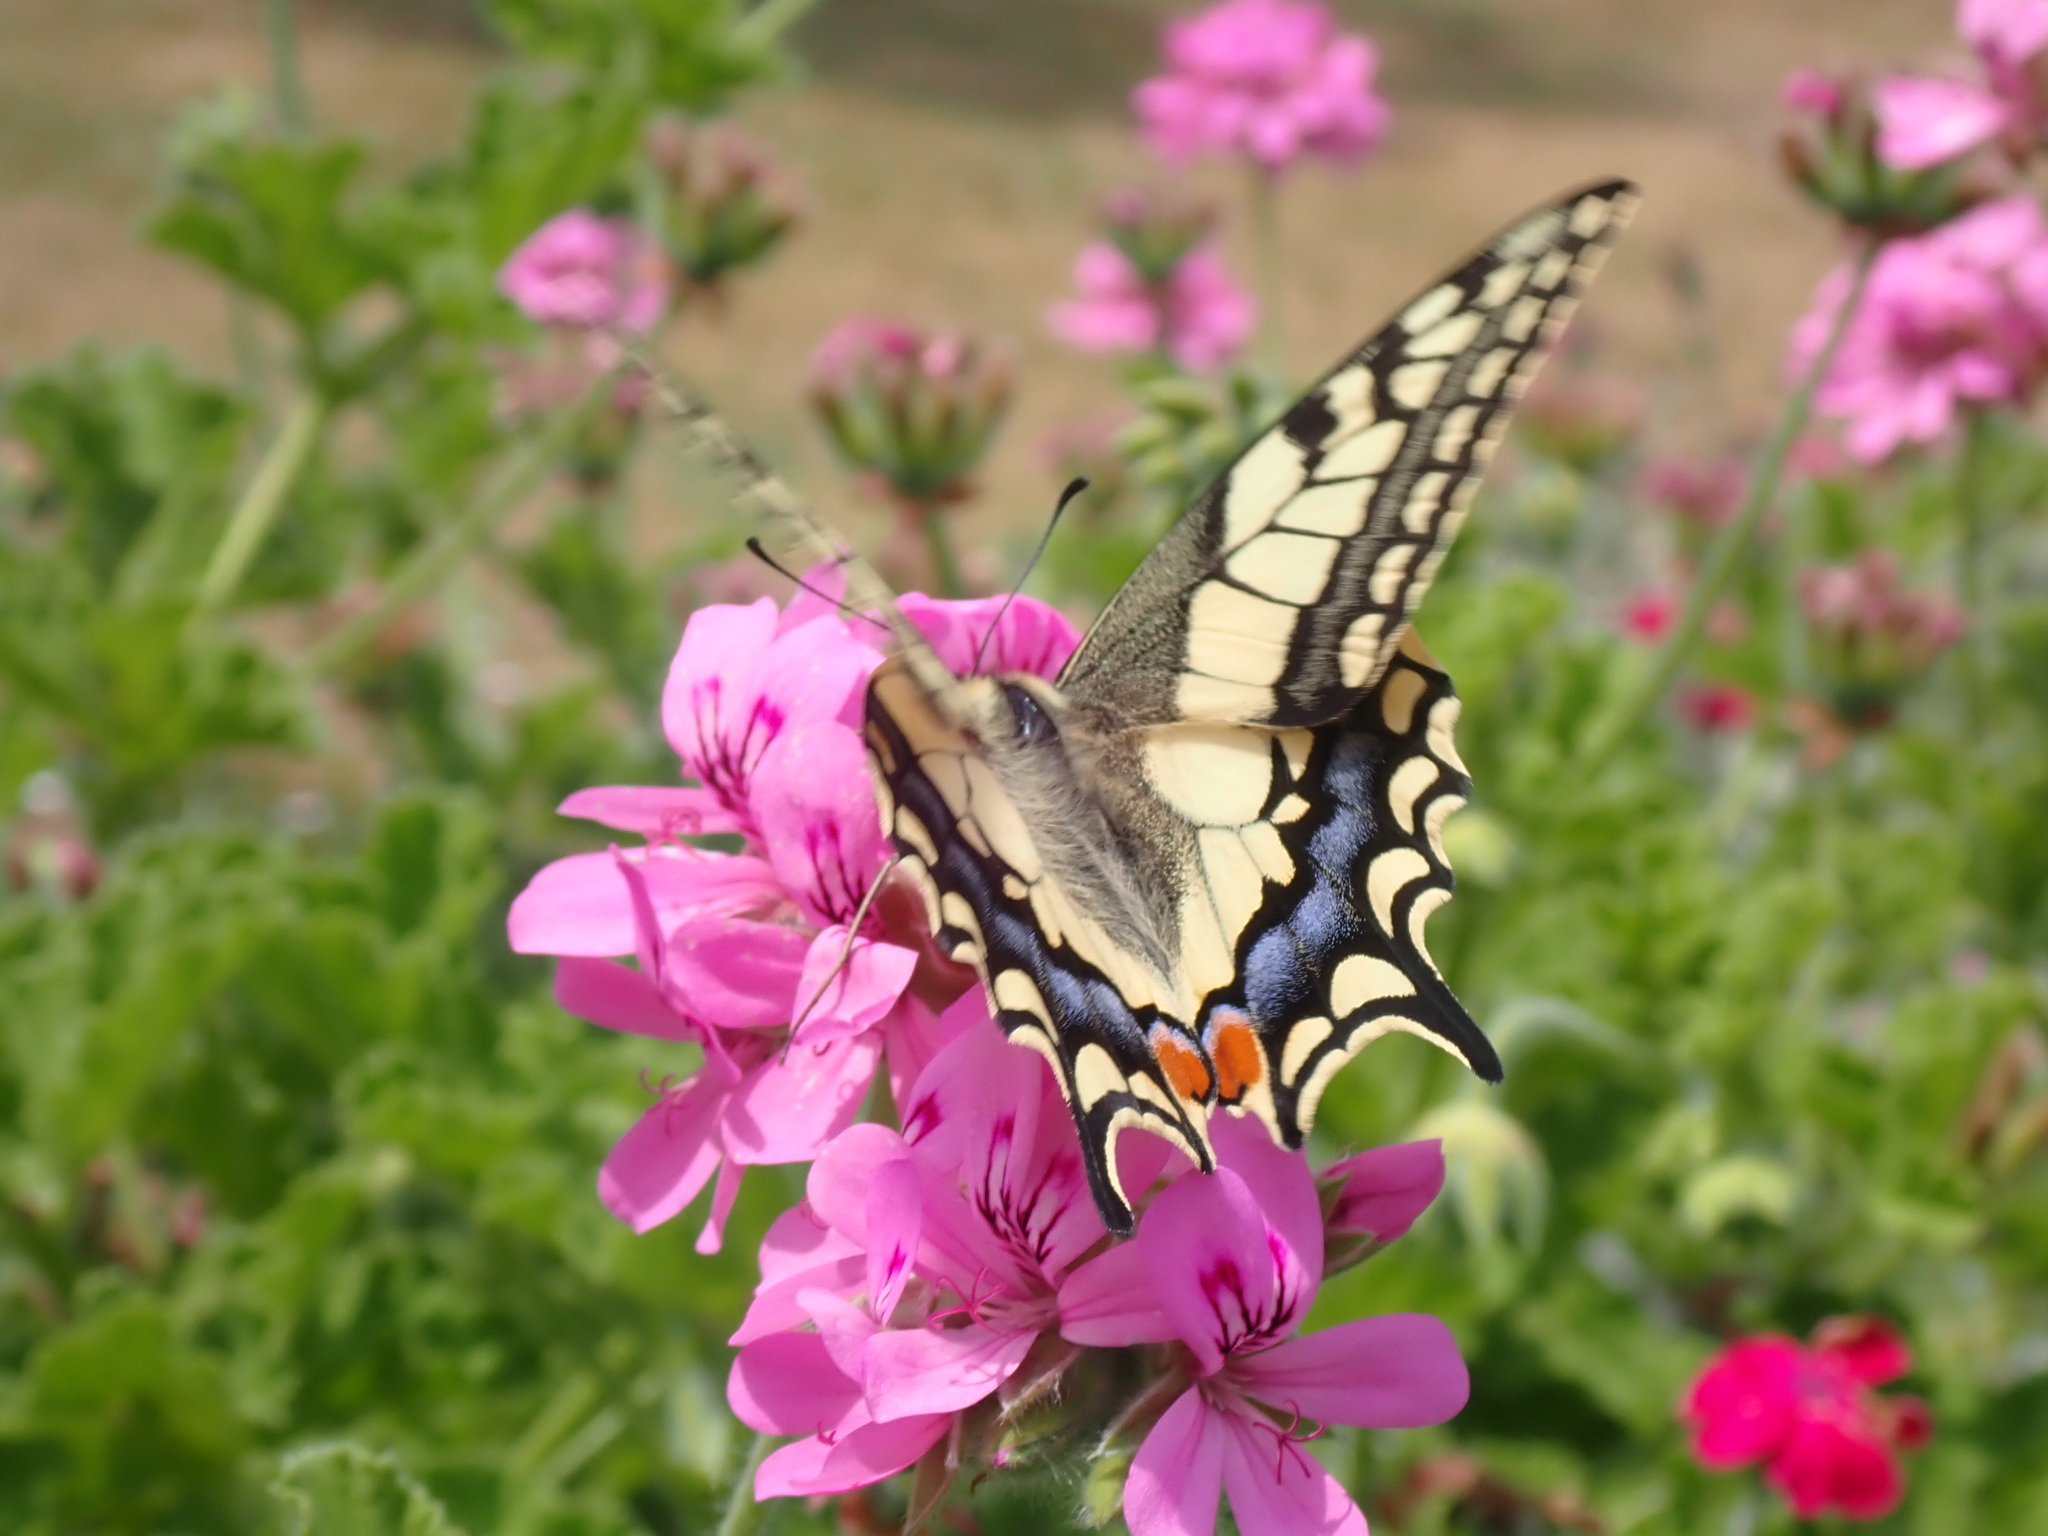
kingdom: Animalia
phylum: Arthropoda
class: Insecta
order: Lepidoptera
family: Papilionidae
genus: Papilio
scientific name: Papilio machaon
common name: Swallowtail
